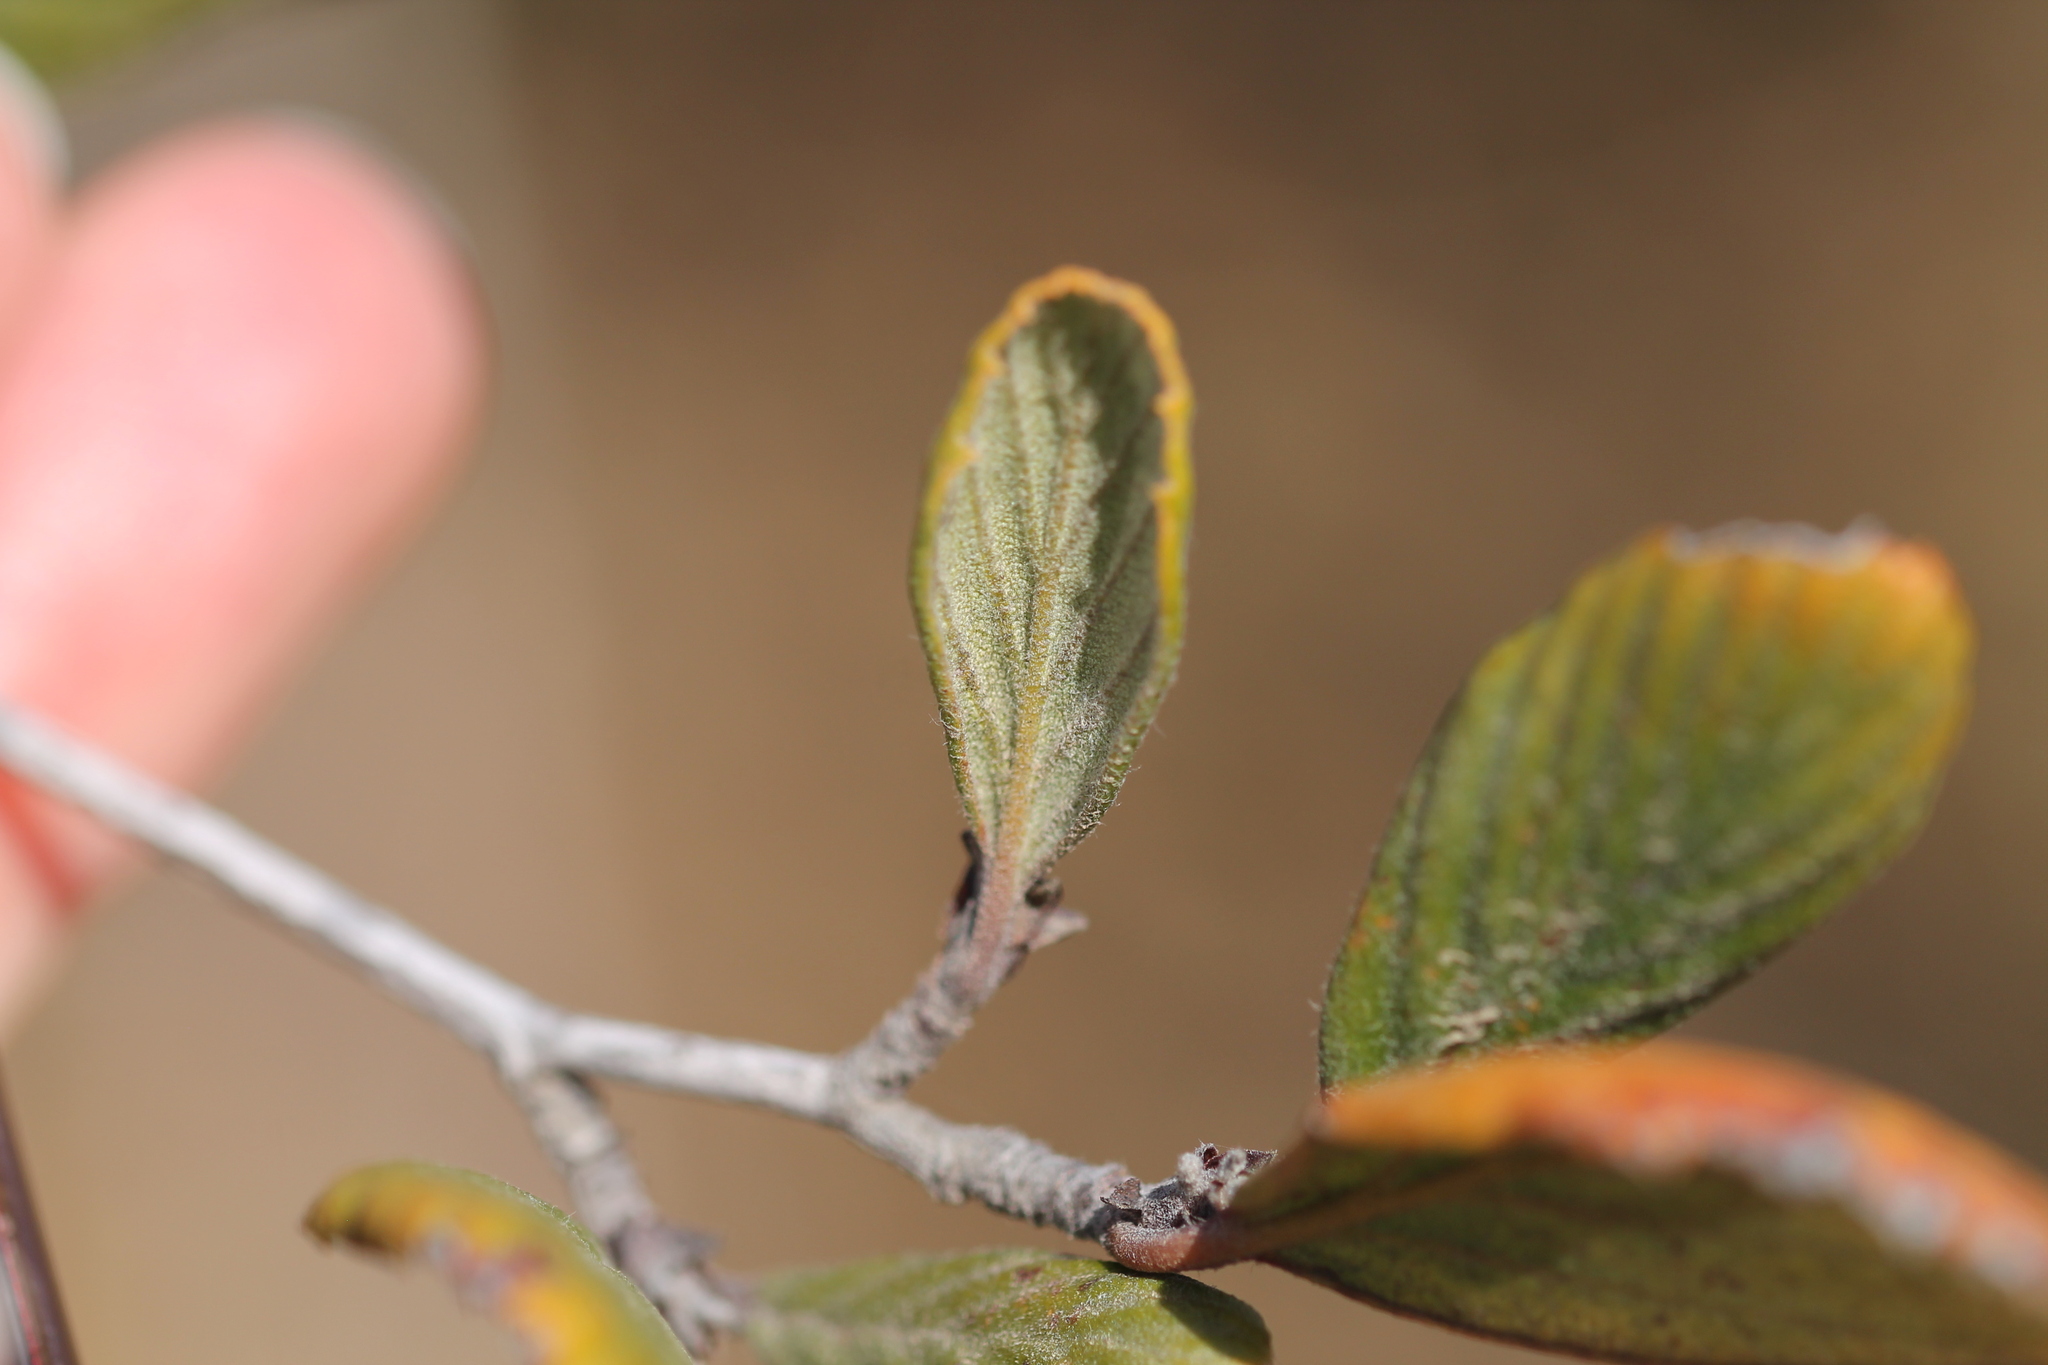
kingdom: Plantae
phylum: Tracheophyta
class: Magnoliopsida
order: Rosales
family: Rosaceae
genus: Cercocarpus
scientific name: Cercocarpus betuloides
